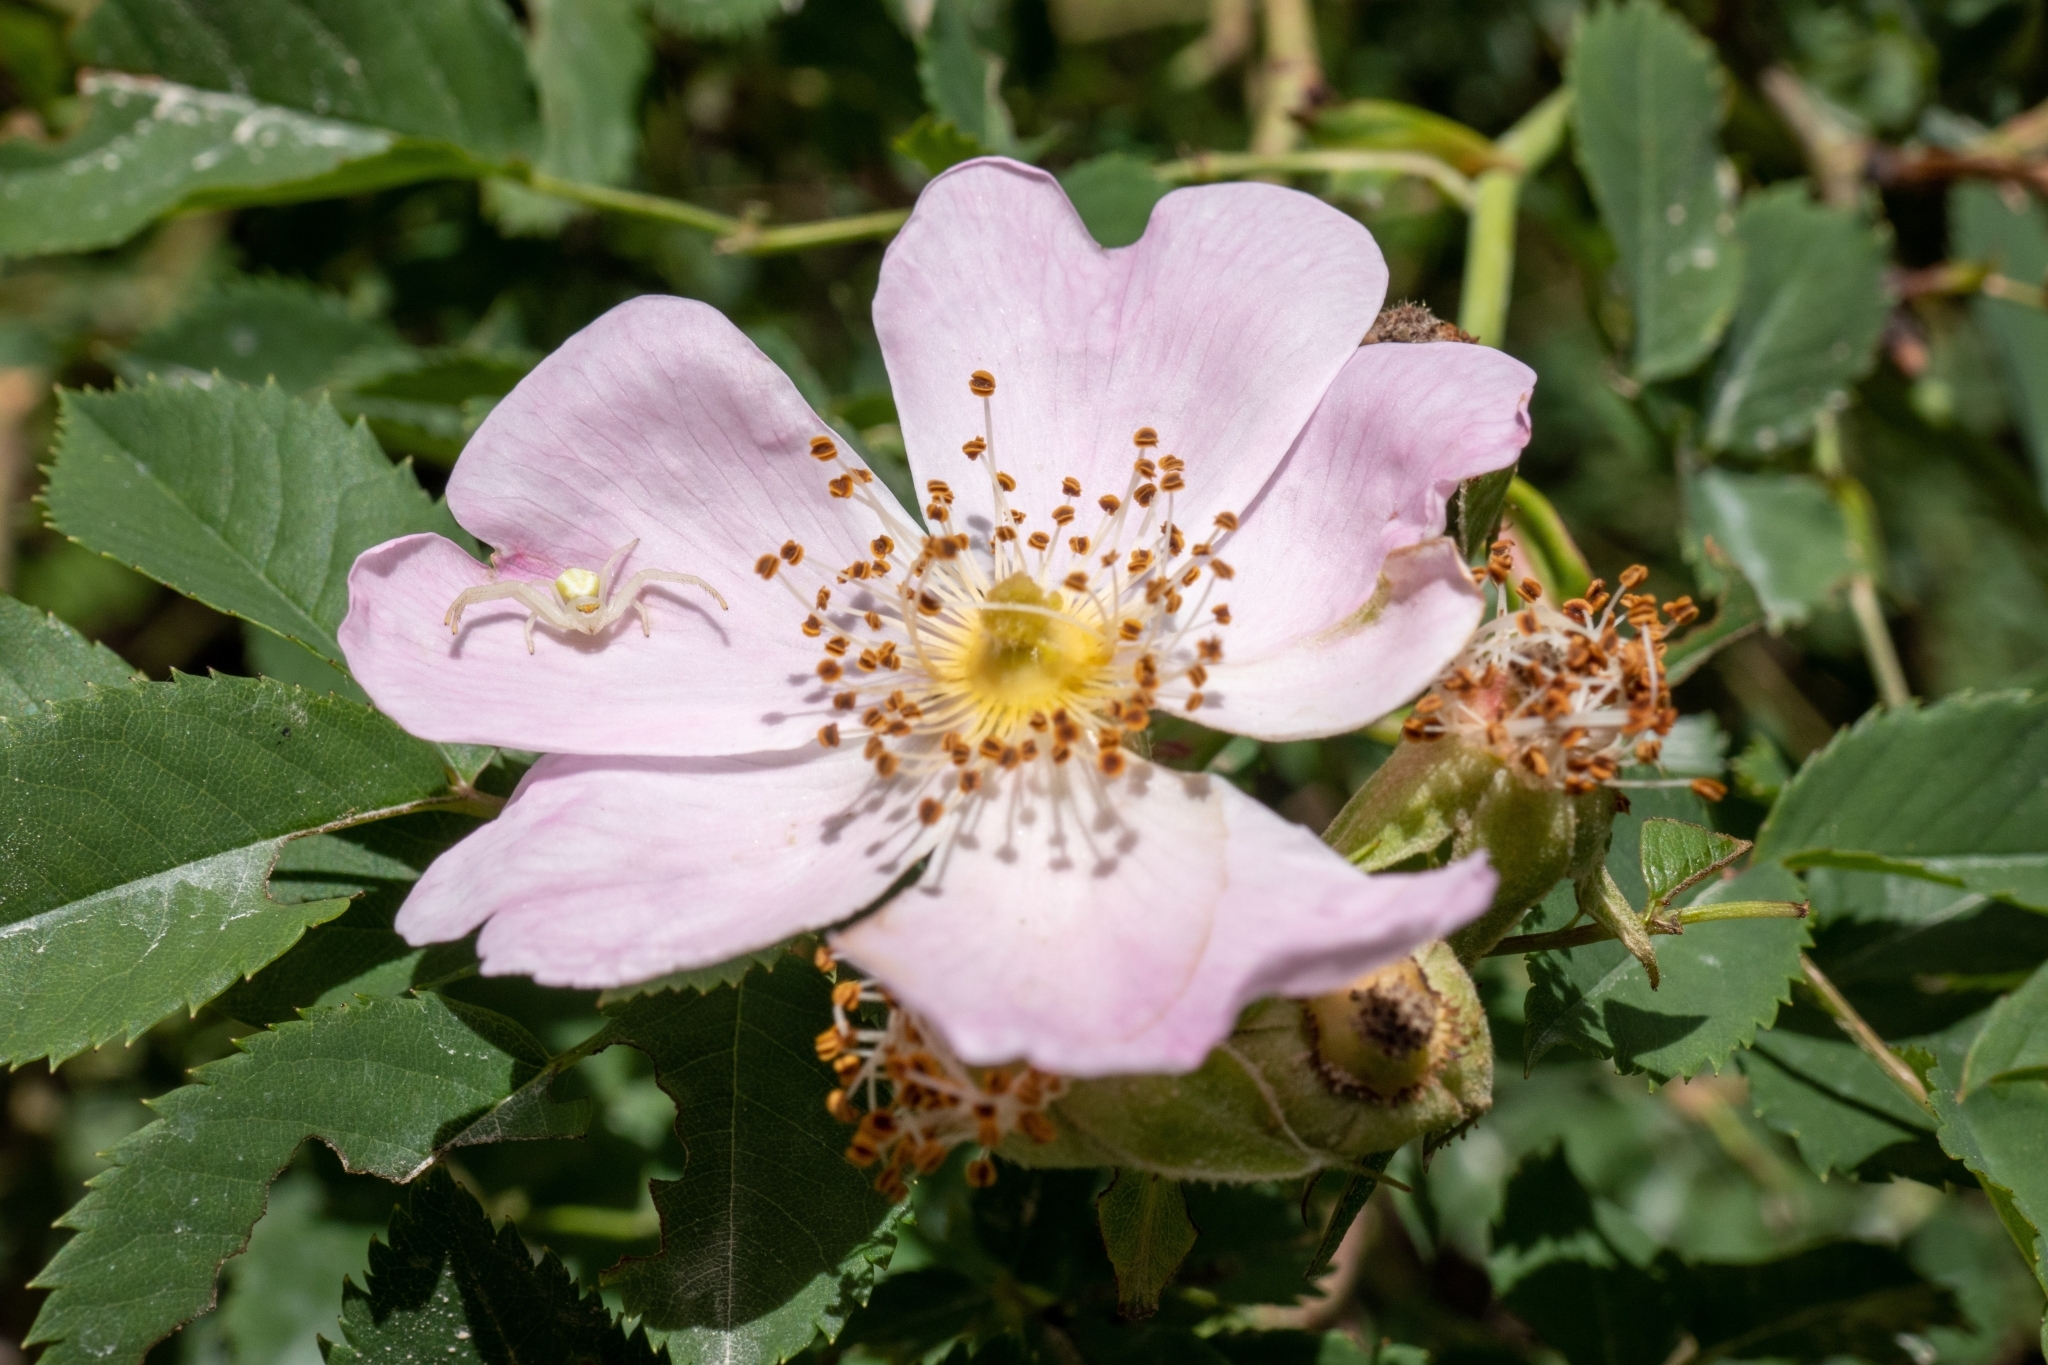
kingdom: Animalia
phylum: Arthropoda
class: Arachnida
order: Araneae
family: Thomisidae
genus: Misumena
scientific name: Misumena vatia
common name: Goldenrod crab spider
